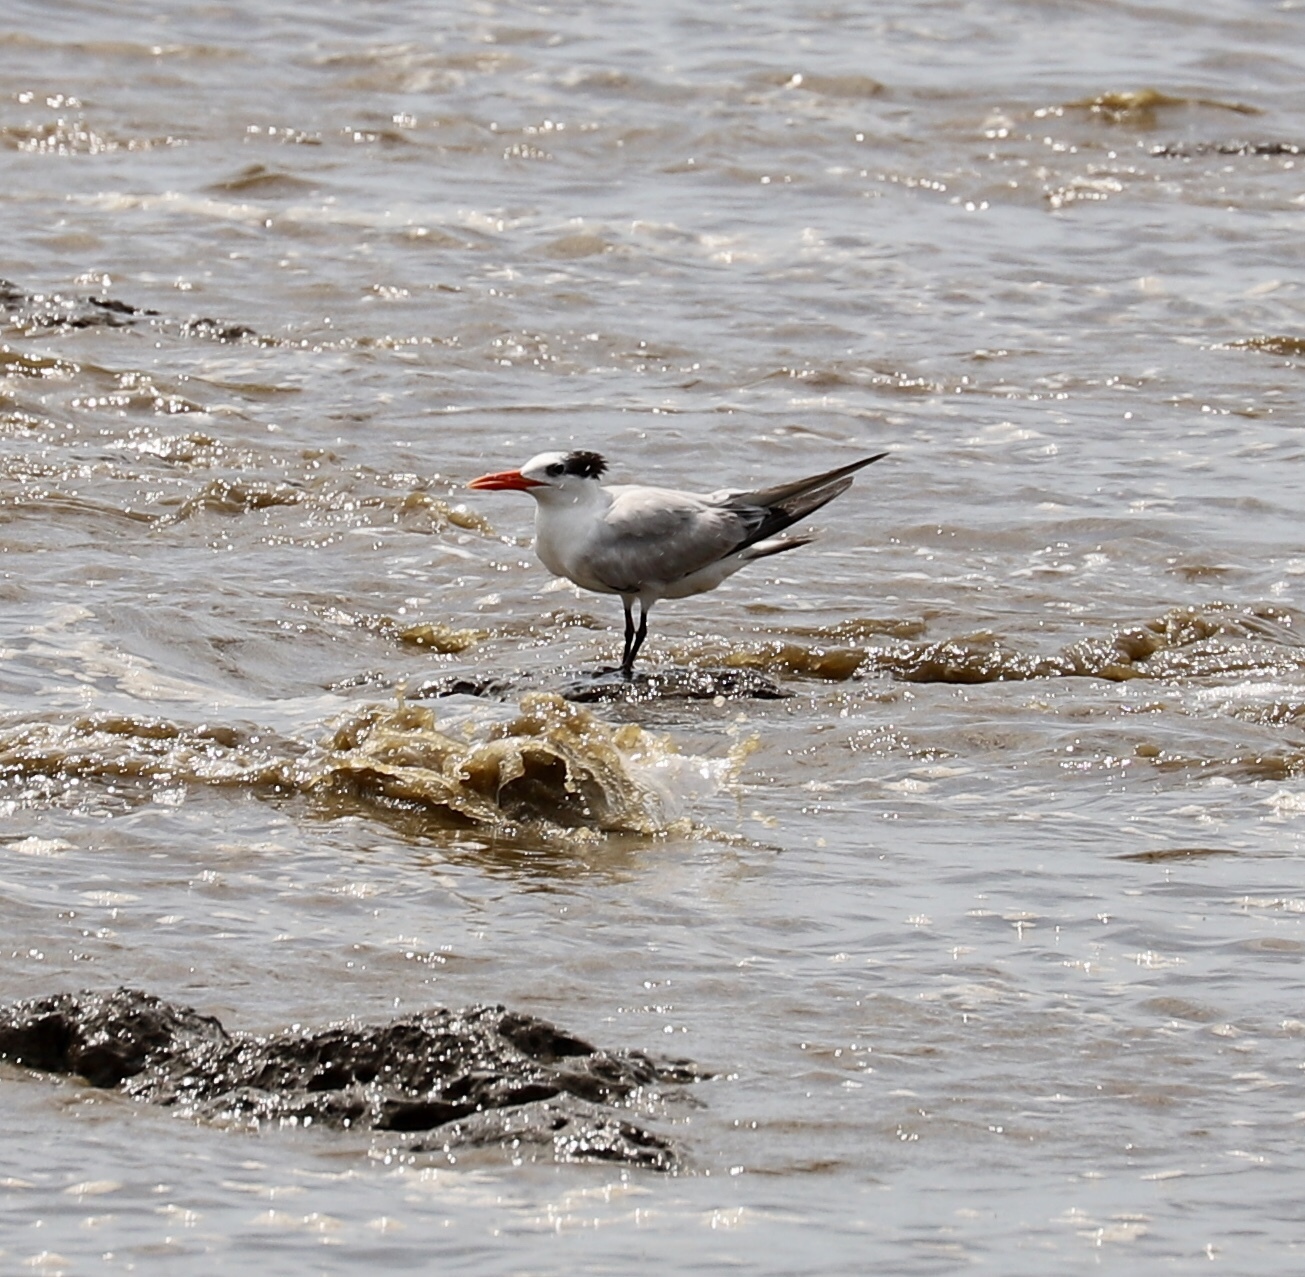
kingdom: Animalia
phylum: Chordata
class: Aves
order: Charadriiformes
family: Laridae
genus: Thalasseus
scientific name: Thalasseus maximus
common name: Royal tern
